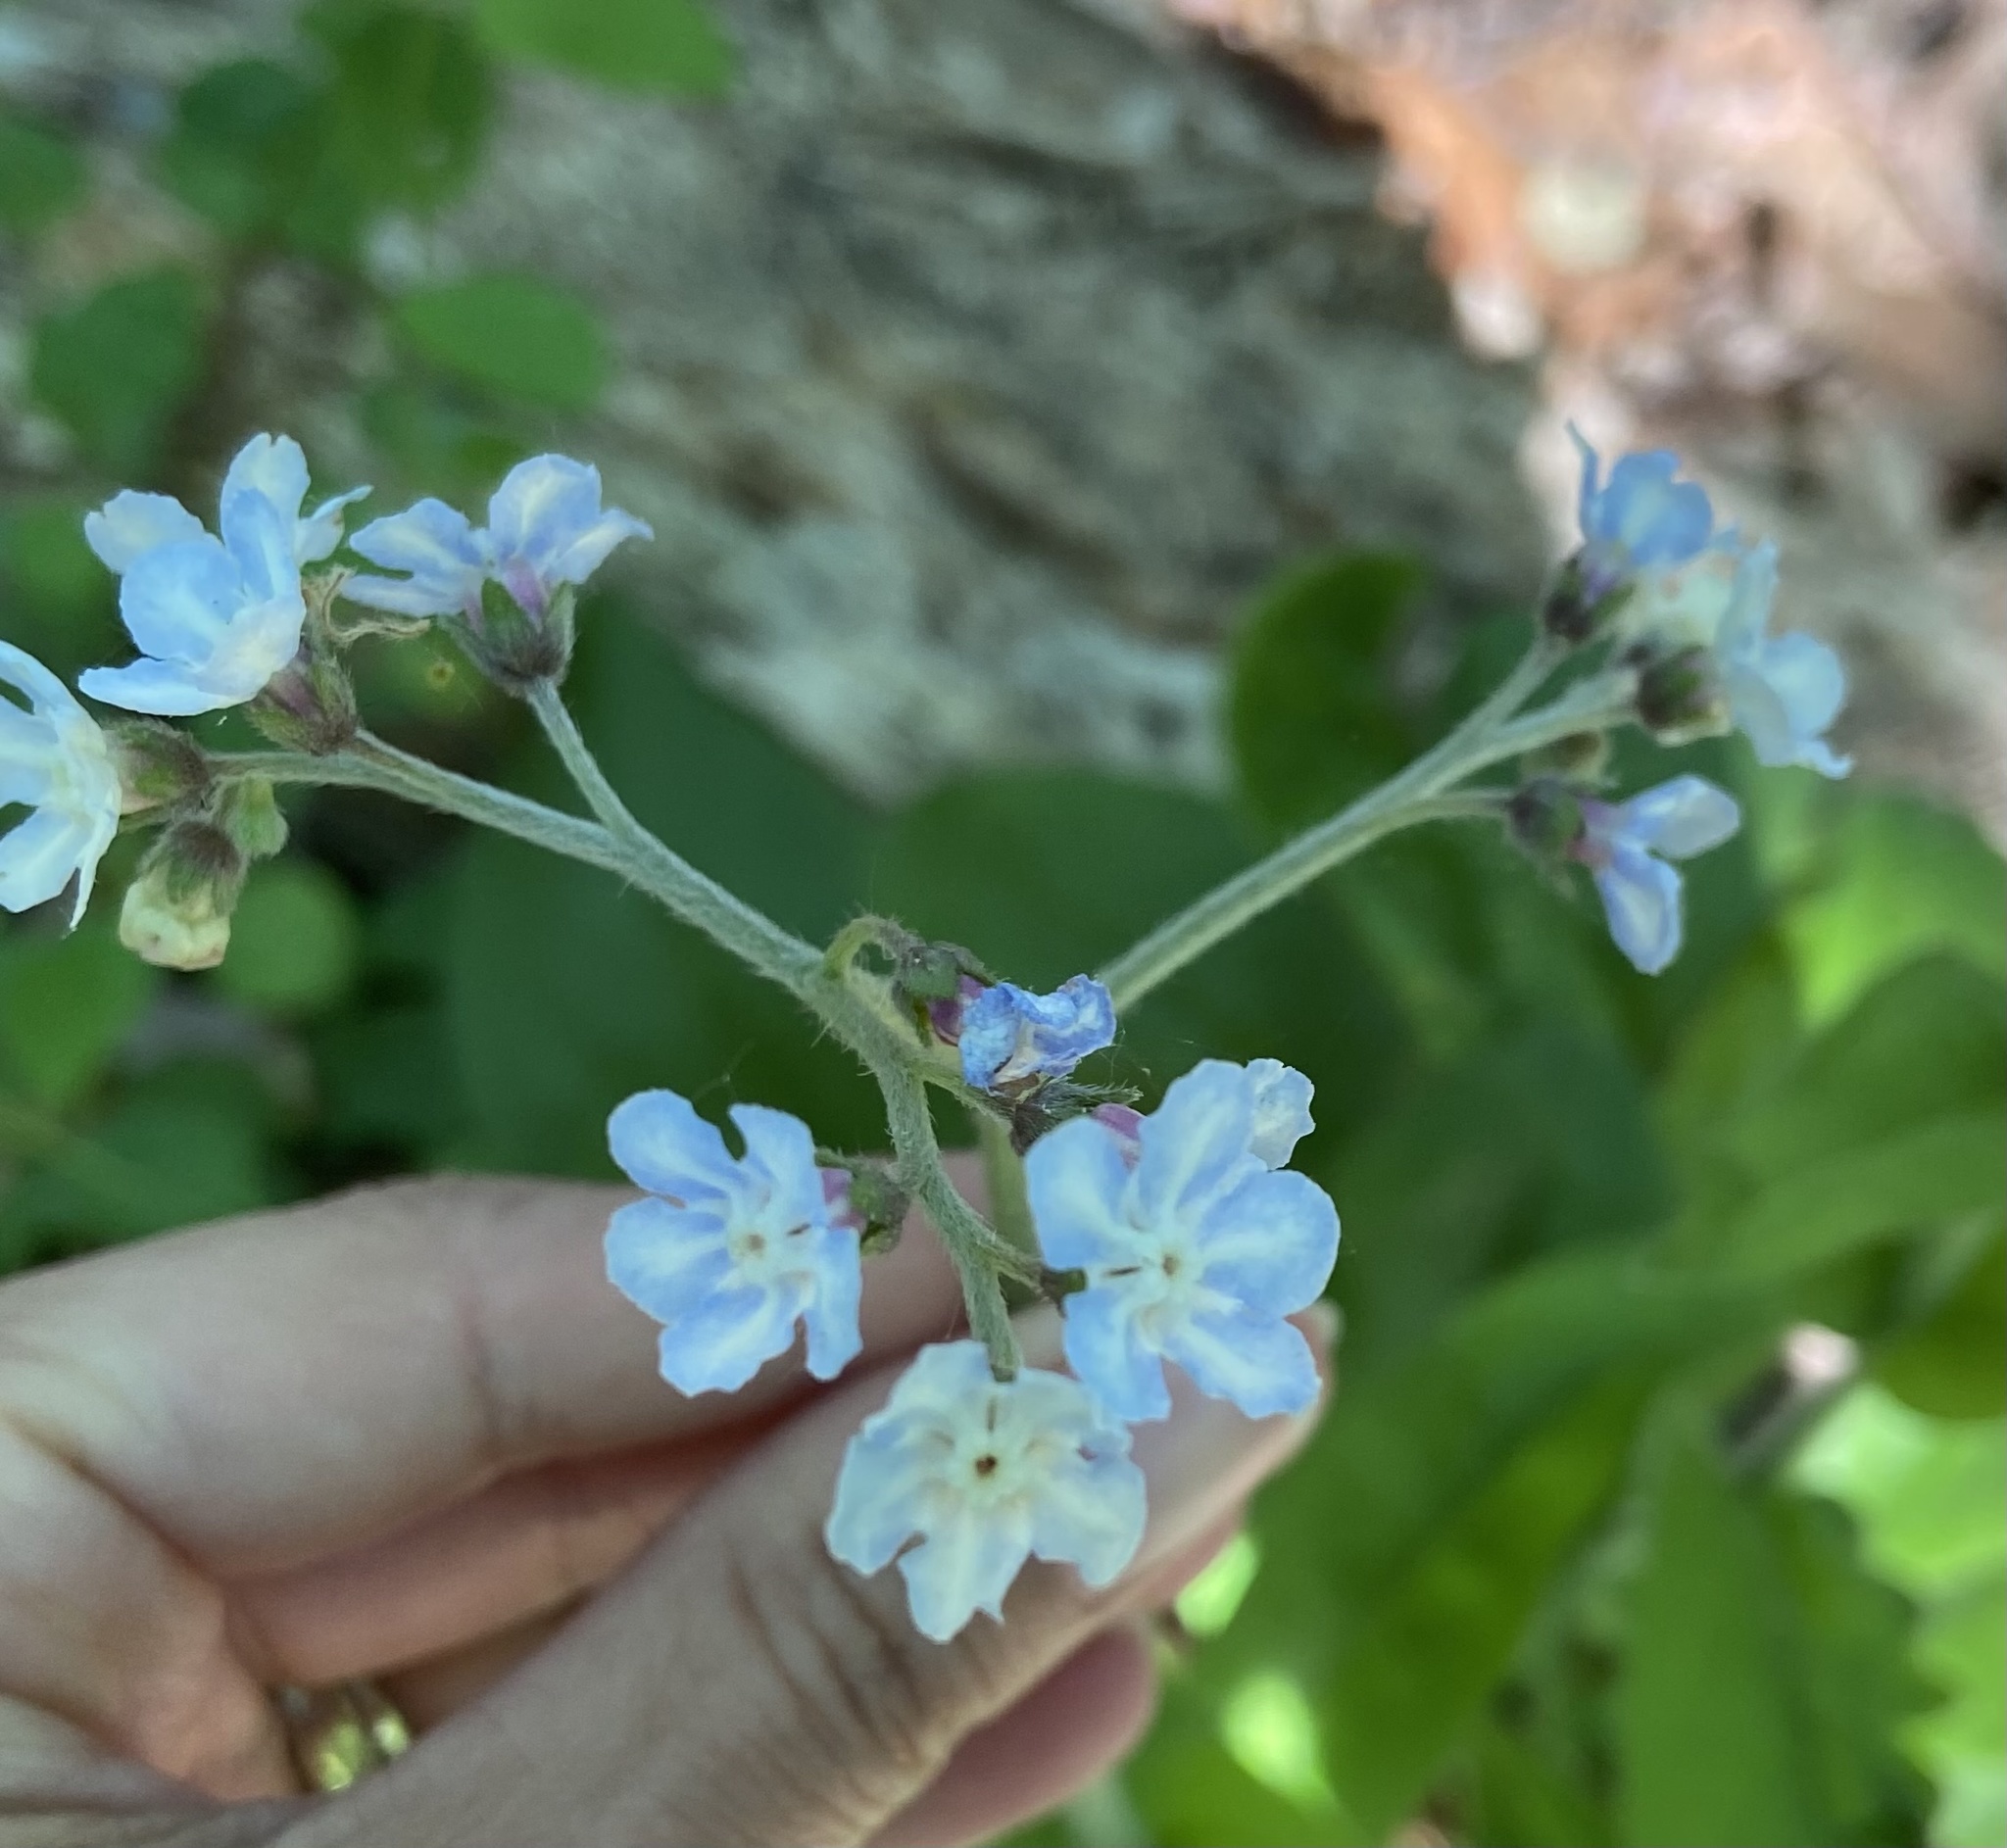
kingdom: Plantae
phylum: Tracheophyta
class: Magnoliopsida
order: Boraginales
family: Boraginaceae
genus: Andersonglossum
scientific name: Andersonglossum virginianum
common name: Wild comfrey
